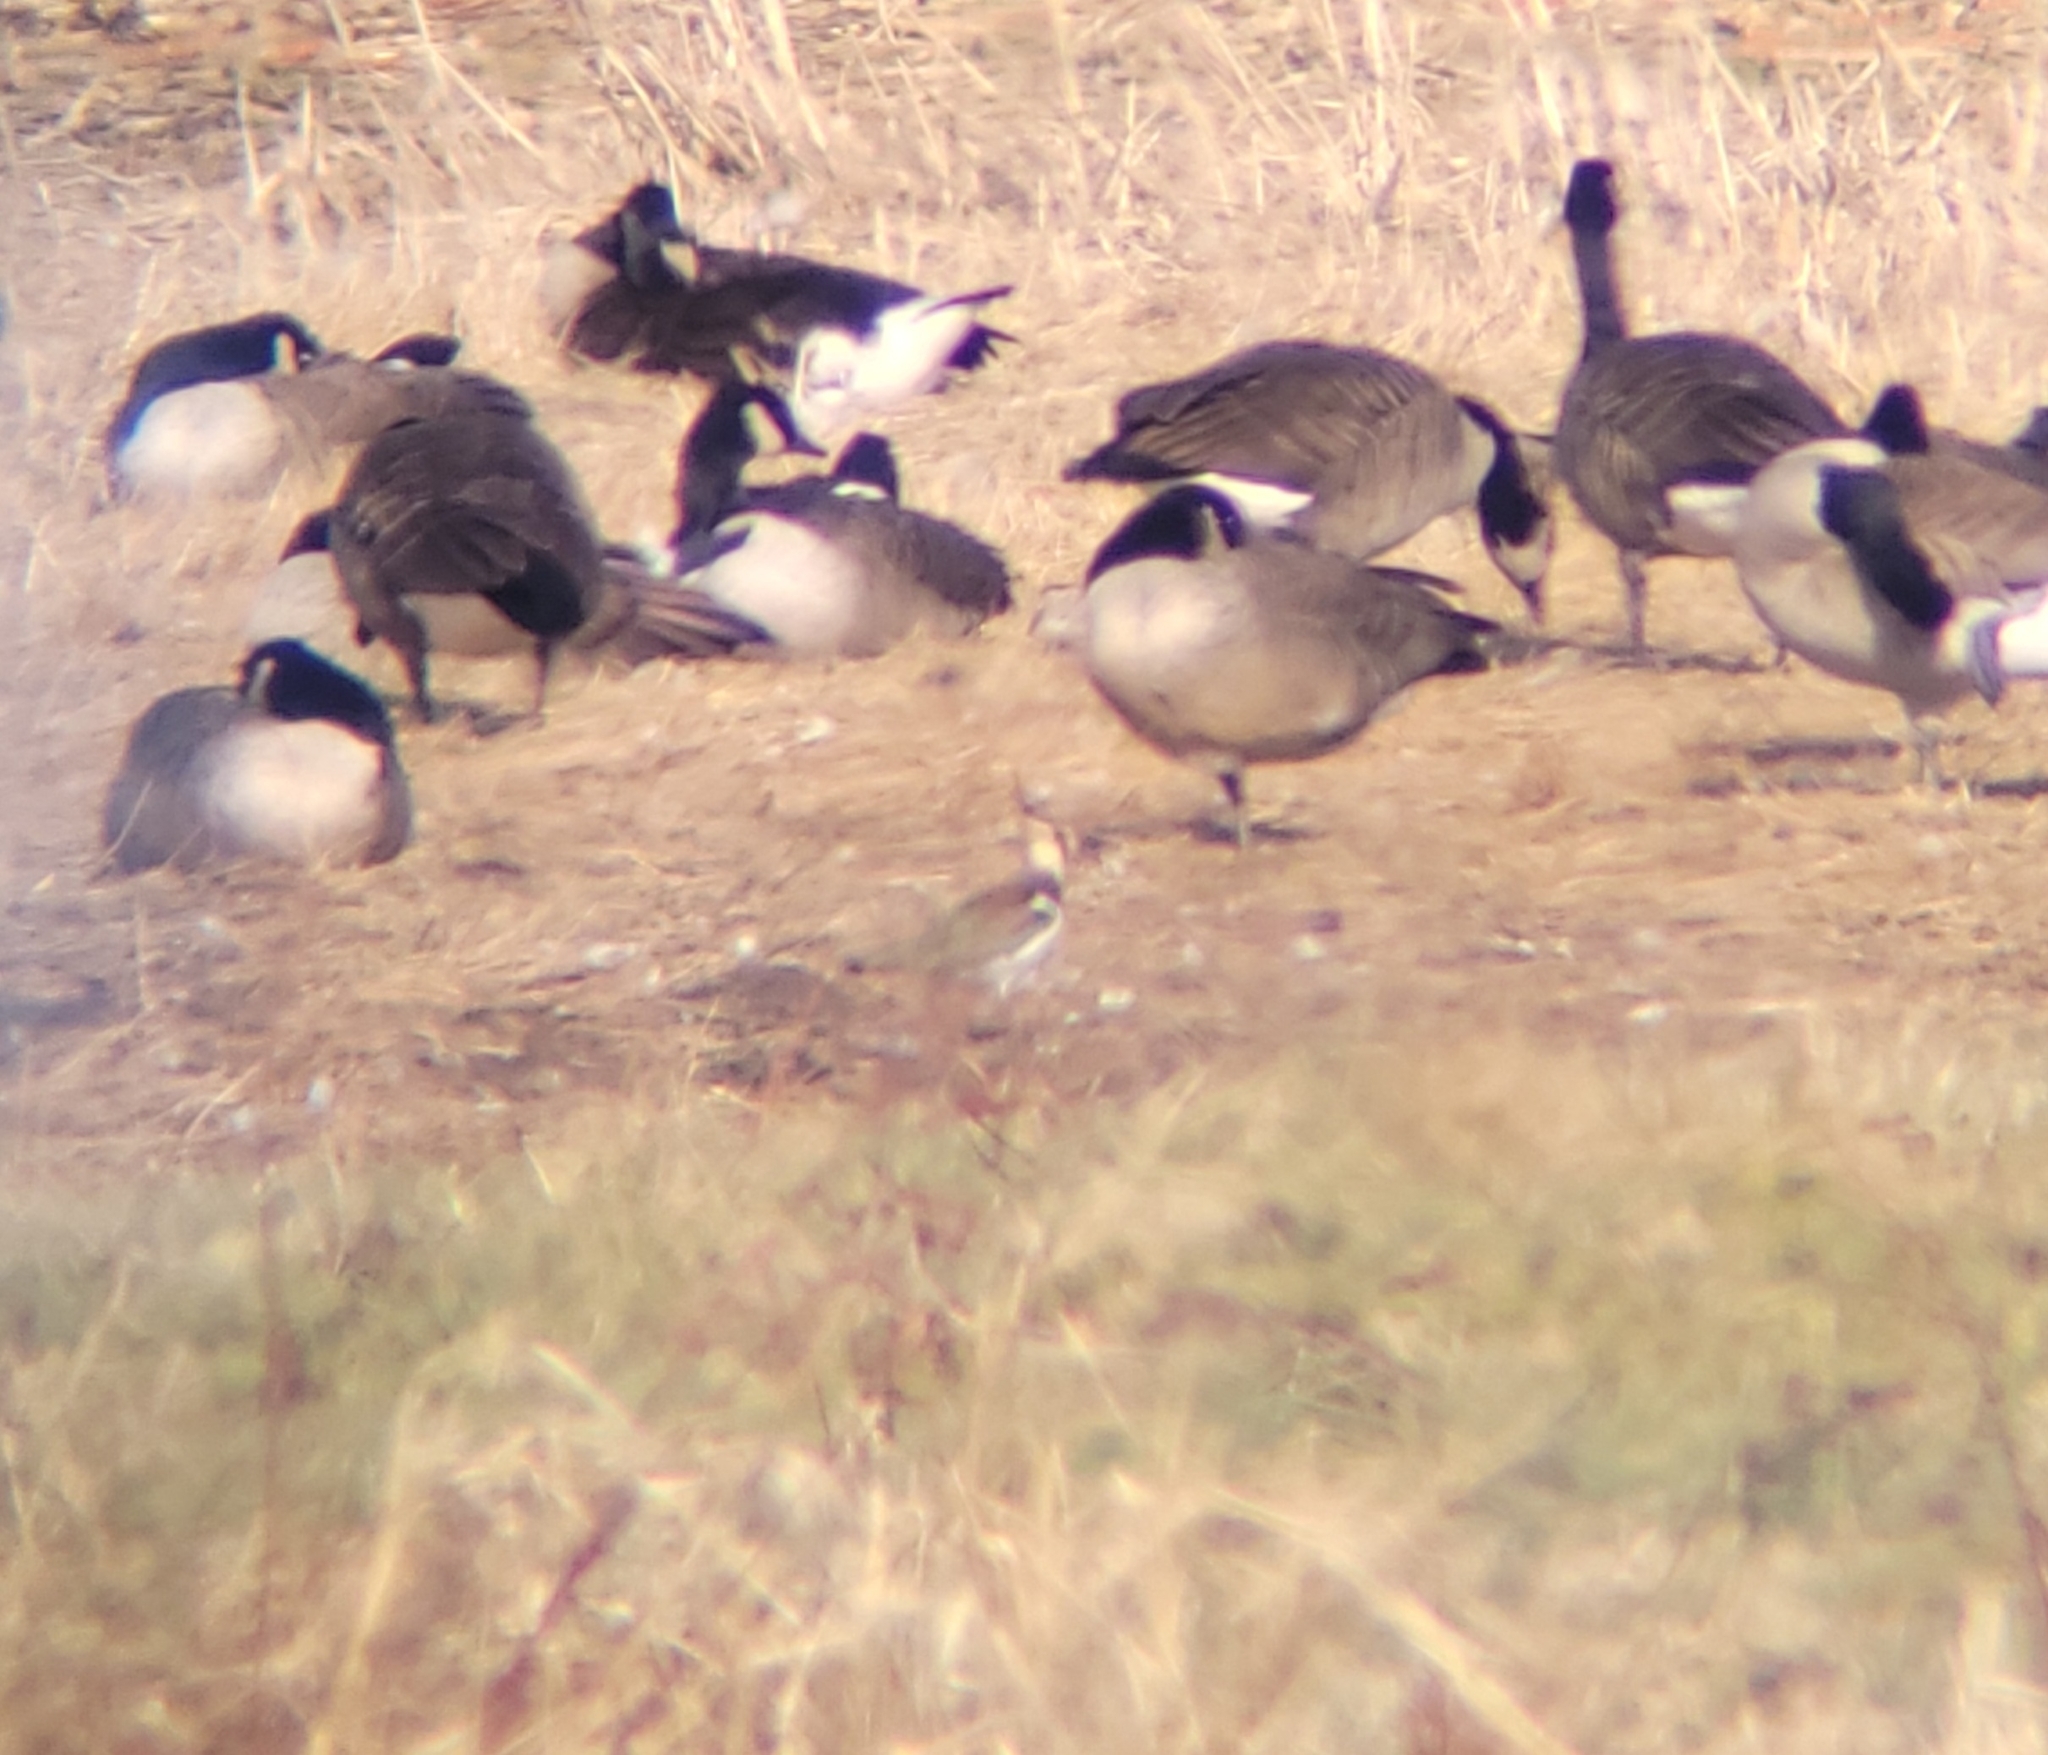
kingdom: Animalia
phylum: Chordata
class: Aves
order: Charadriiformes
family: Charadriidae
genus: Vanellus
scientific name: Vanellus vanellus
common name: Northern lapwing
